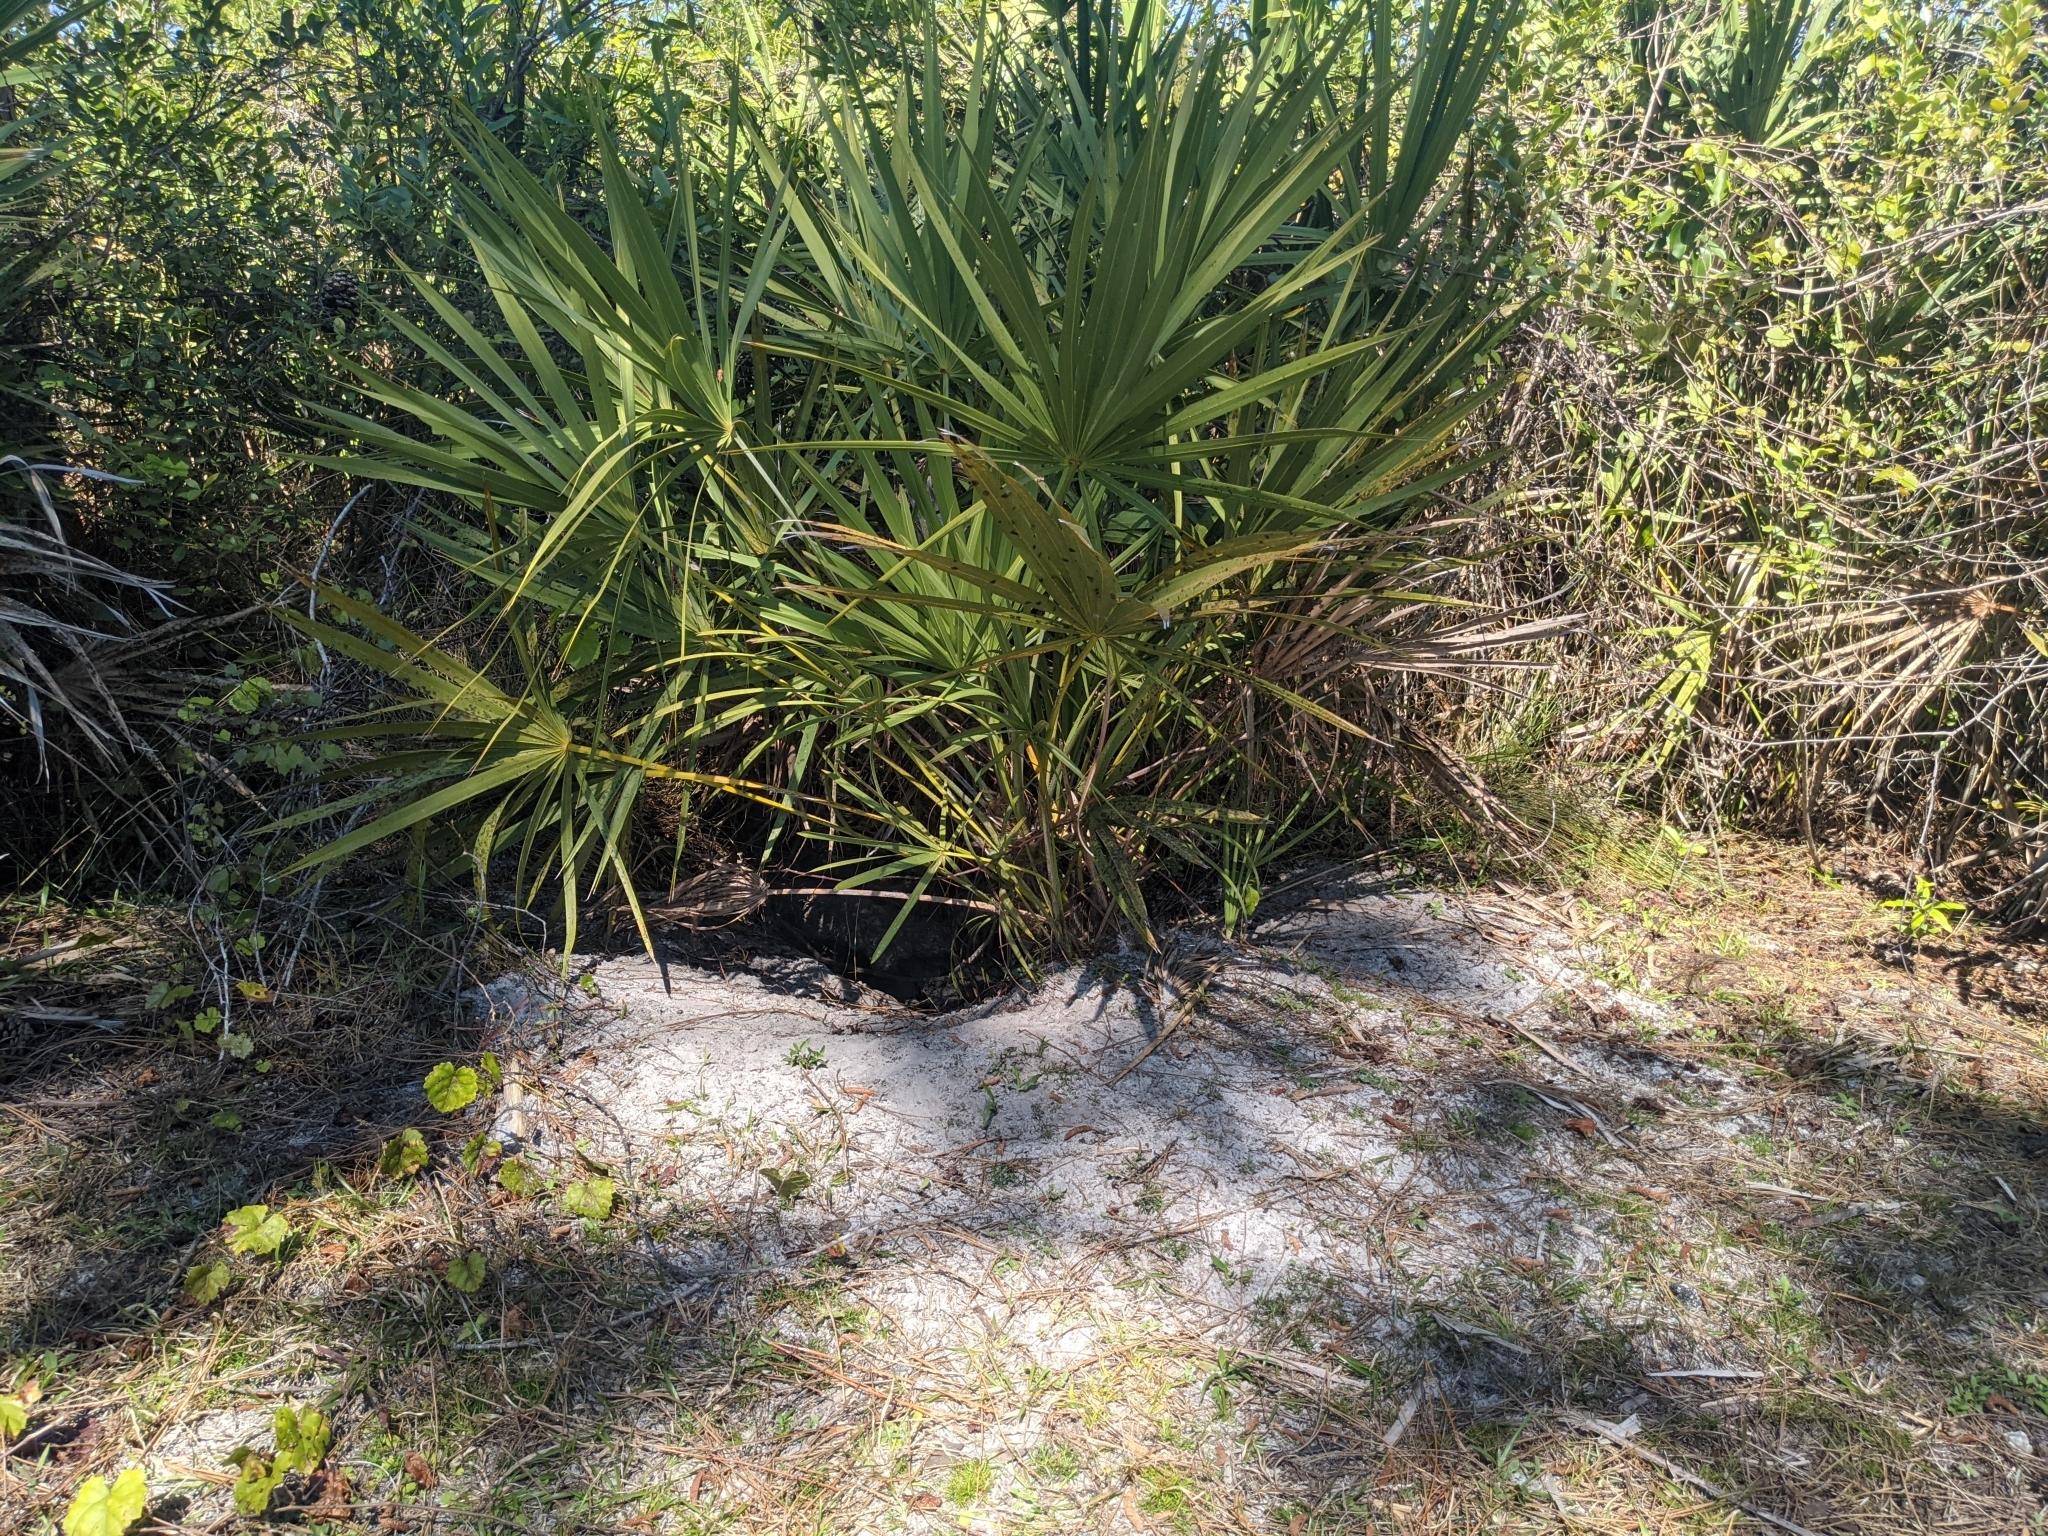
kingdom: Animalia
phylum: Chordata
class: Testudines
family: Testudinidae
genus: Gopherus
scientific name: Gopherus polyphemus
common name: Florida gopher tortoise
